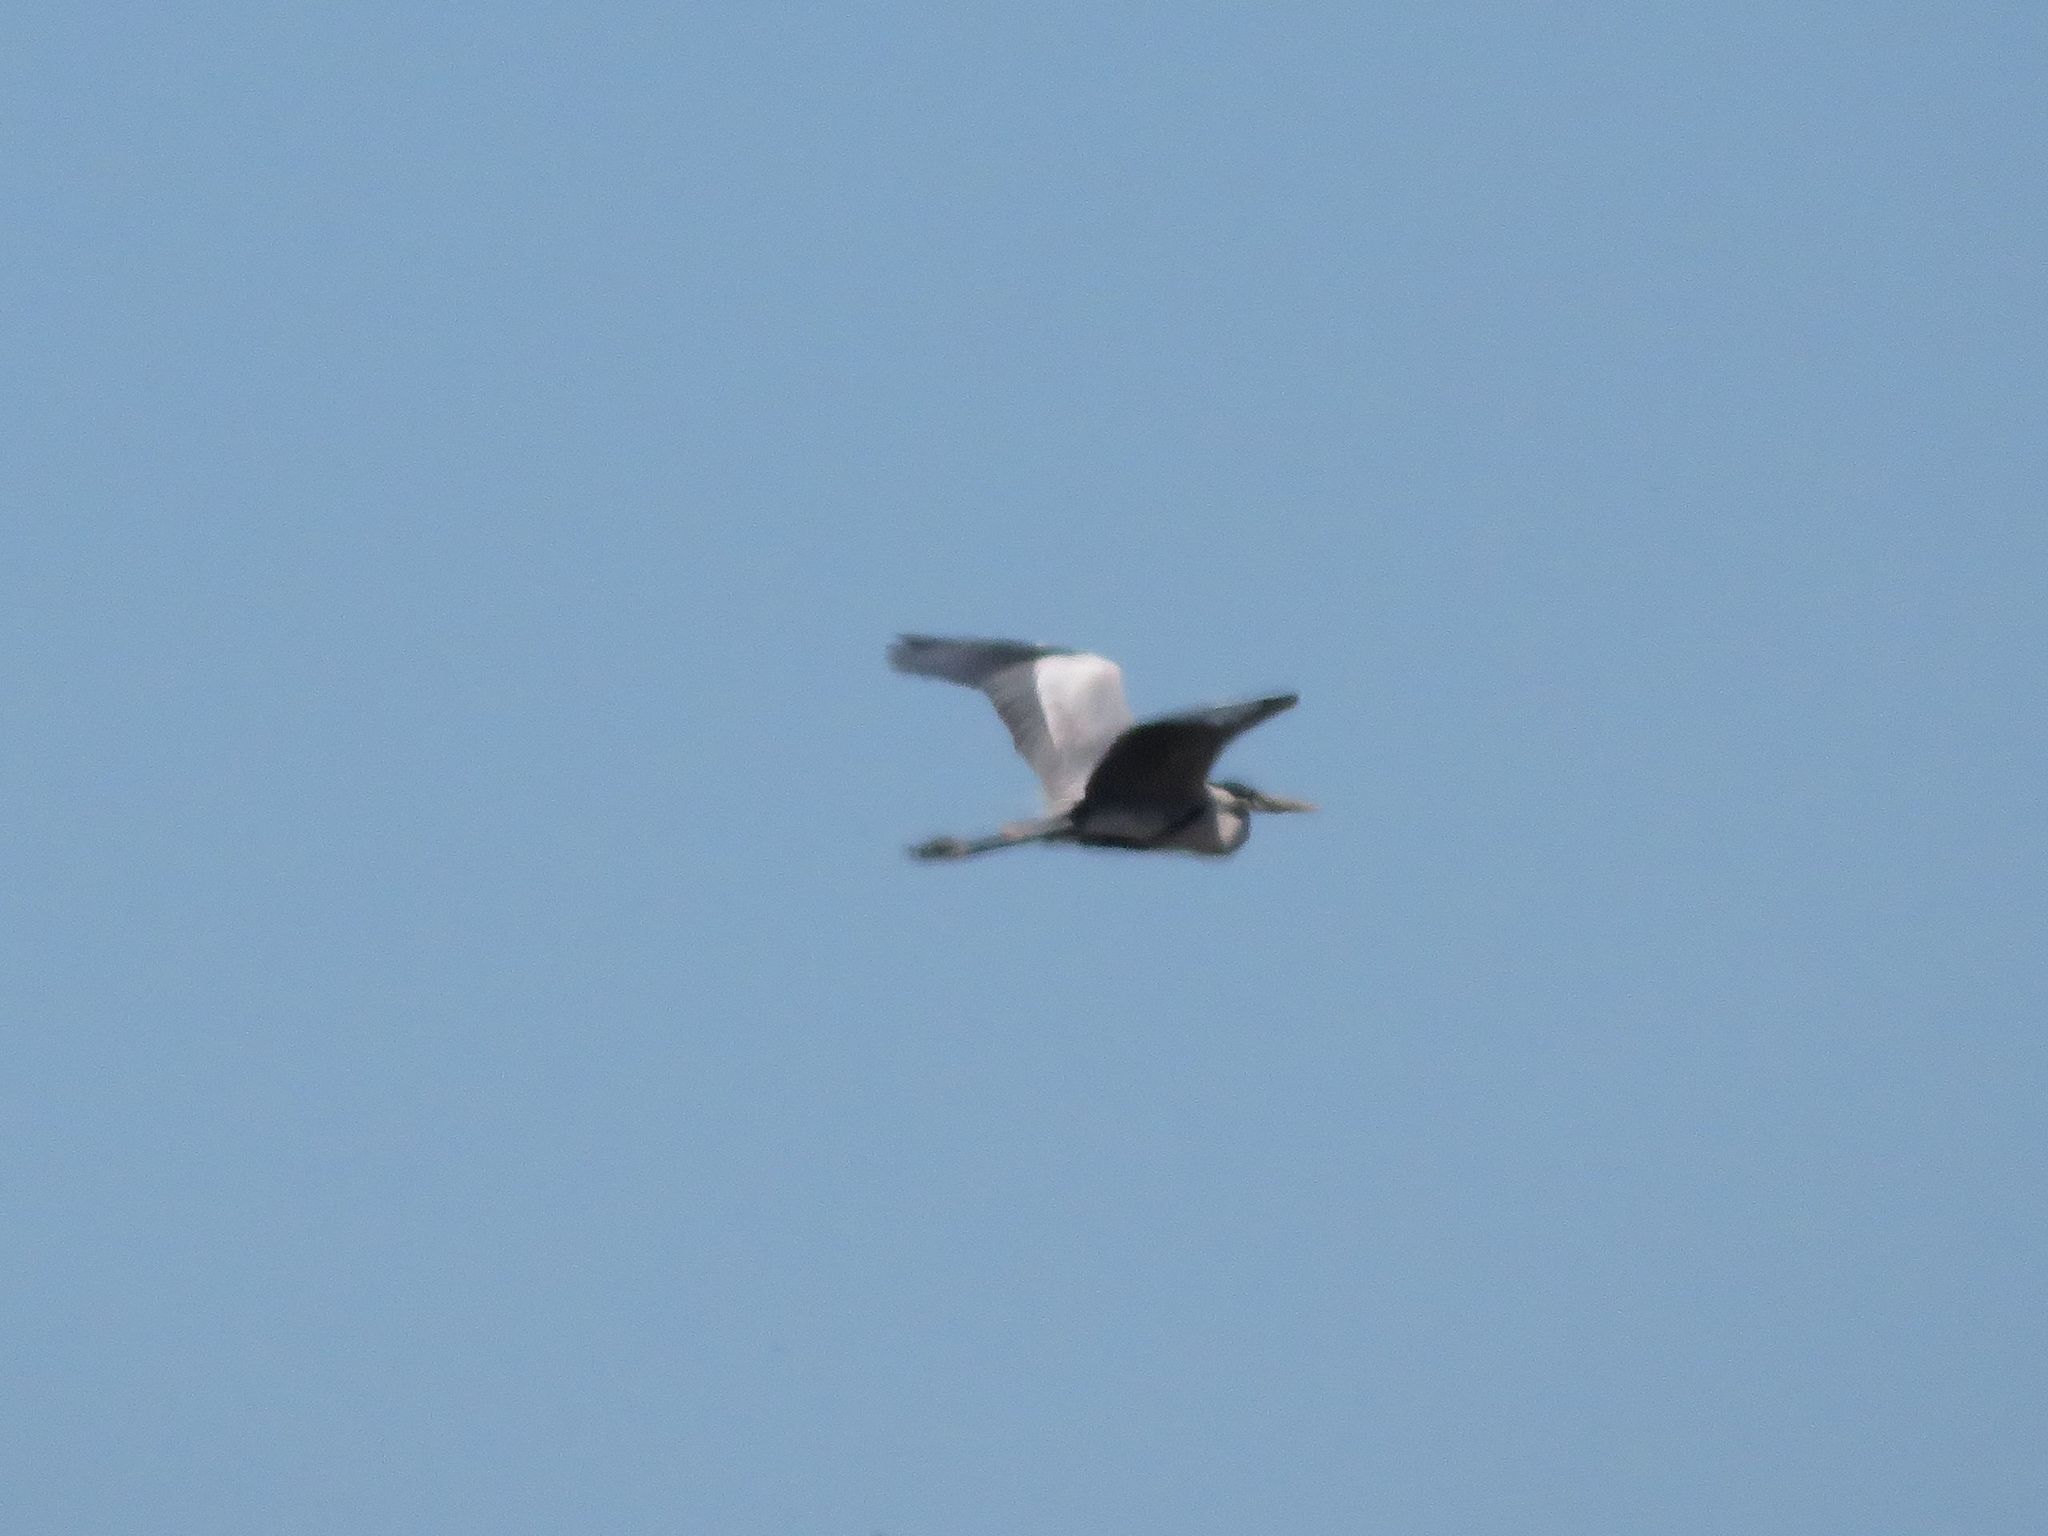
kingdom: Animalia
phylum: Chordata
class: Aves
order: Pelecaniformes
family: Ardeidae
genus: Ardea
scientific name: Ardea cocoi
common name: Cocoi heron
